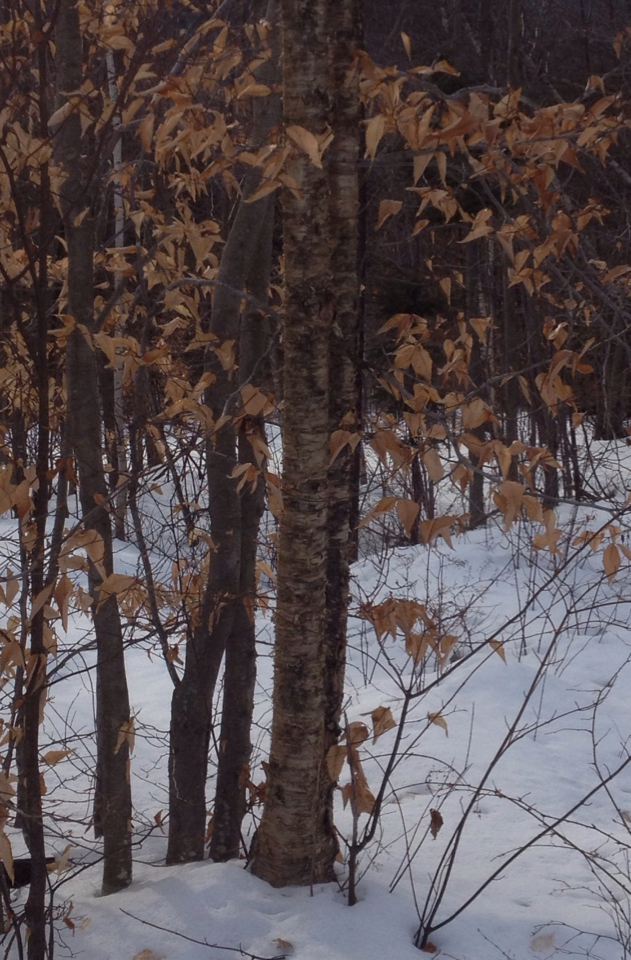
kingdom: Plantae
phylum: Tracheophyta
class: Magnoliopsida
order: Fagales
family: Betulaceae
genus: Betula
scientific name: Betula alleghaniensis
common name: Yellow birch
